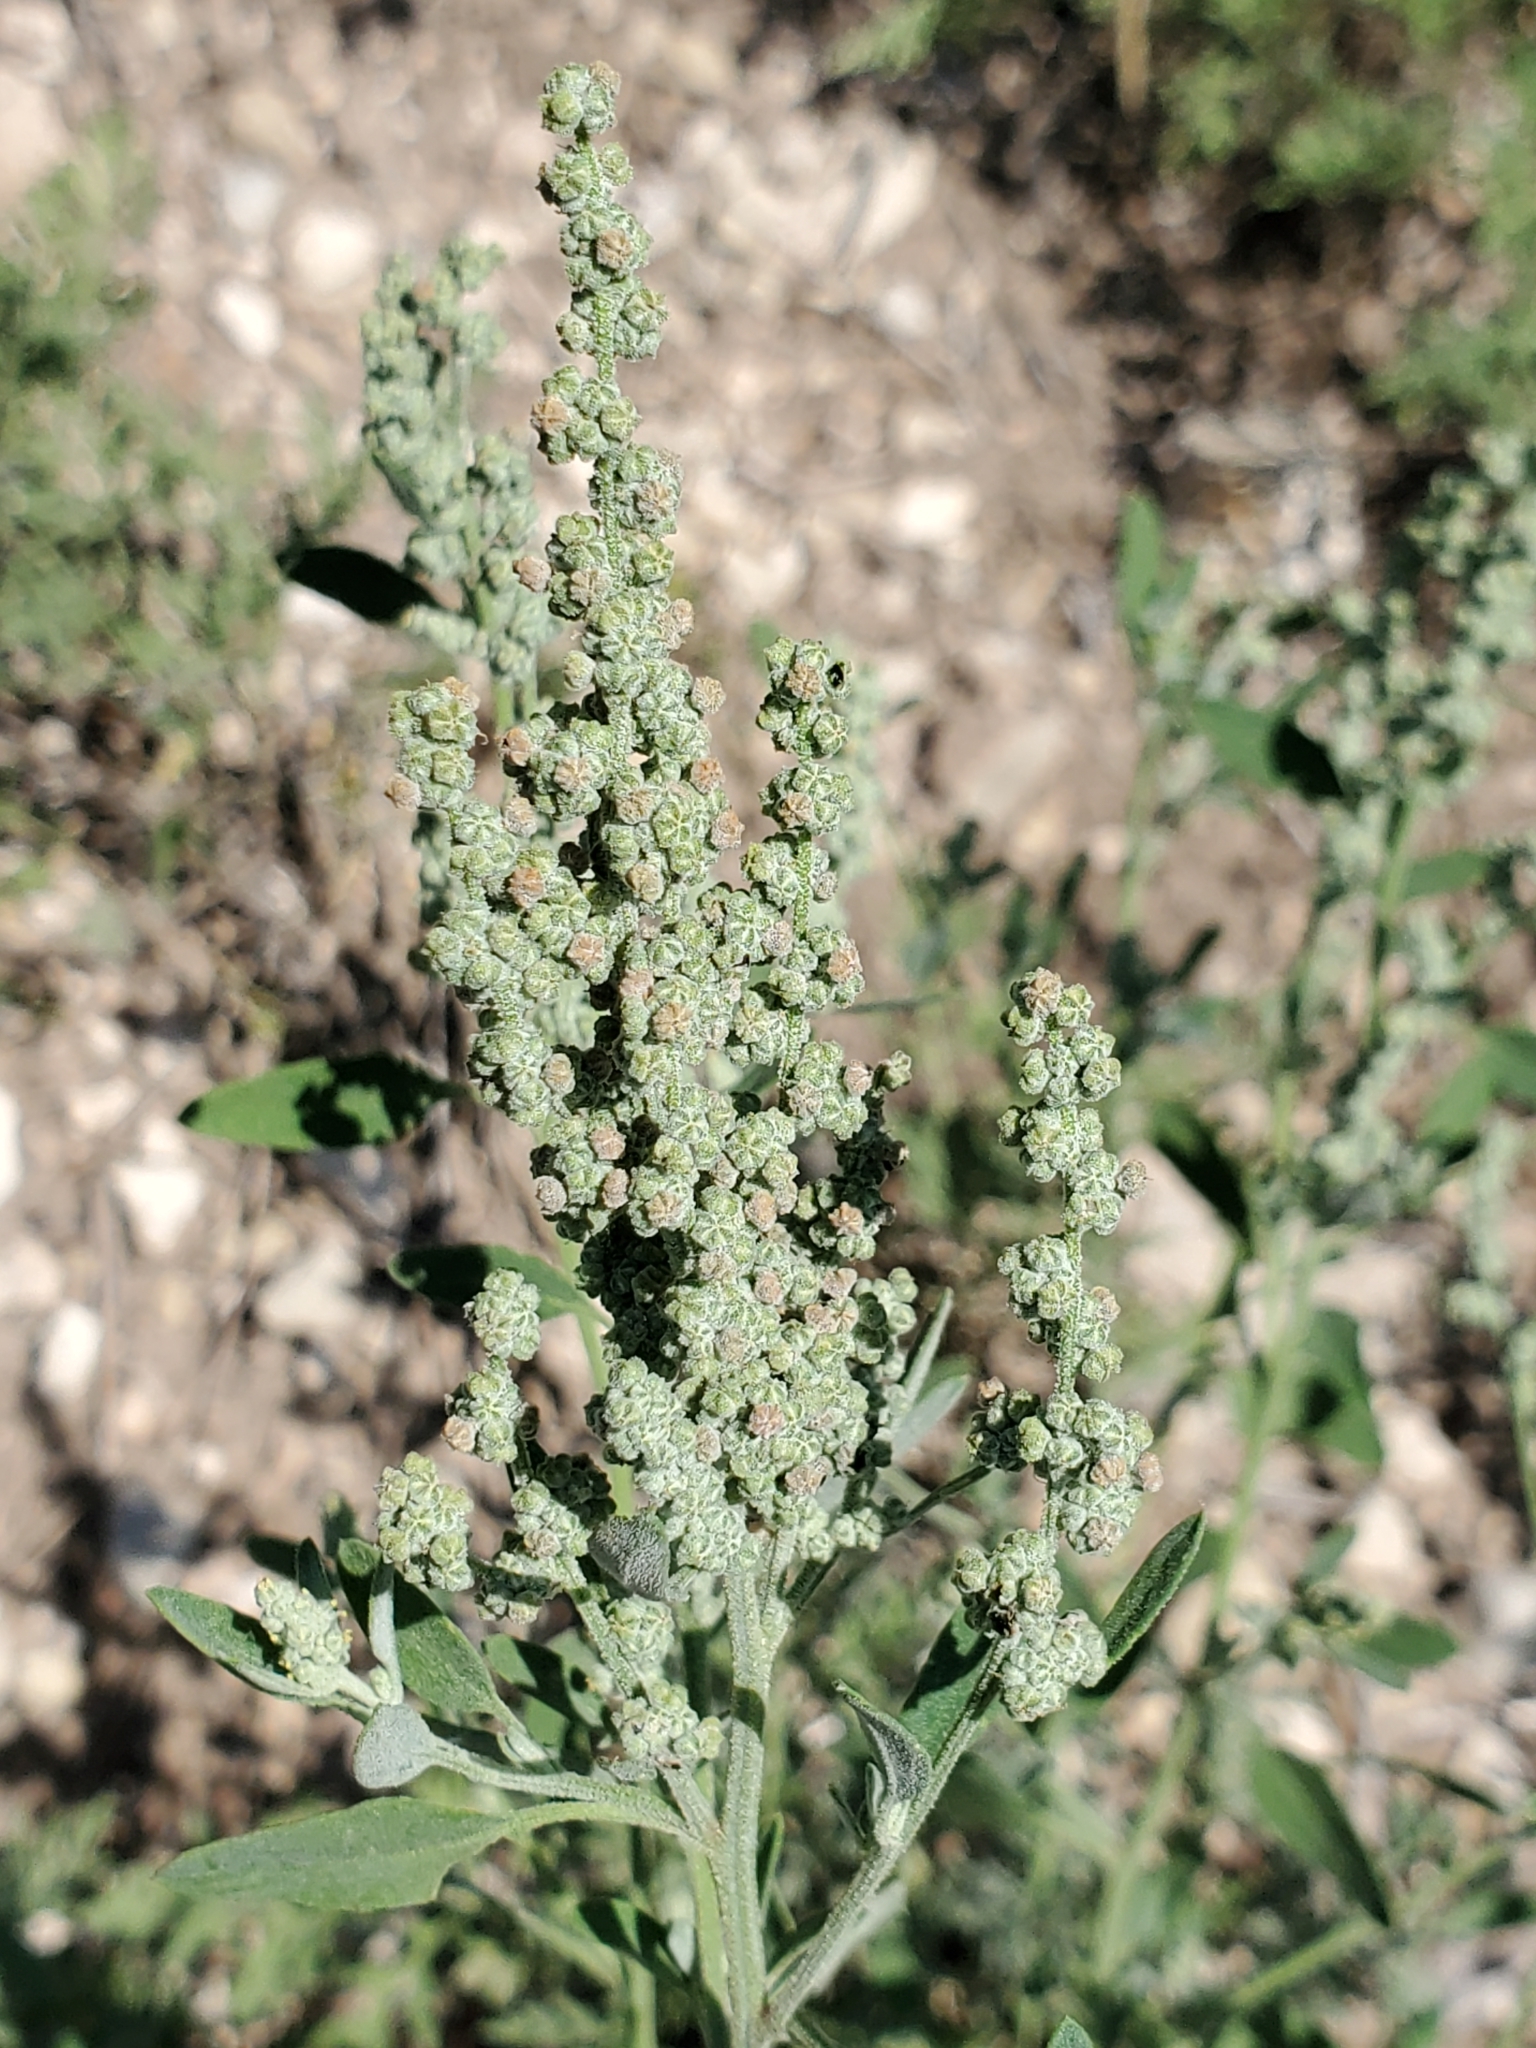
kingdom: Plantae
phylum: Tracheophyta
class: Magnoliopsida
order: Caryophyllales
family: Amaranthaceae
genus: Chenopodium
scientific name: Chenopodium album
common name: Fat-hen
